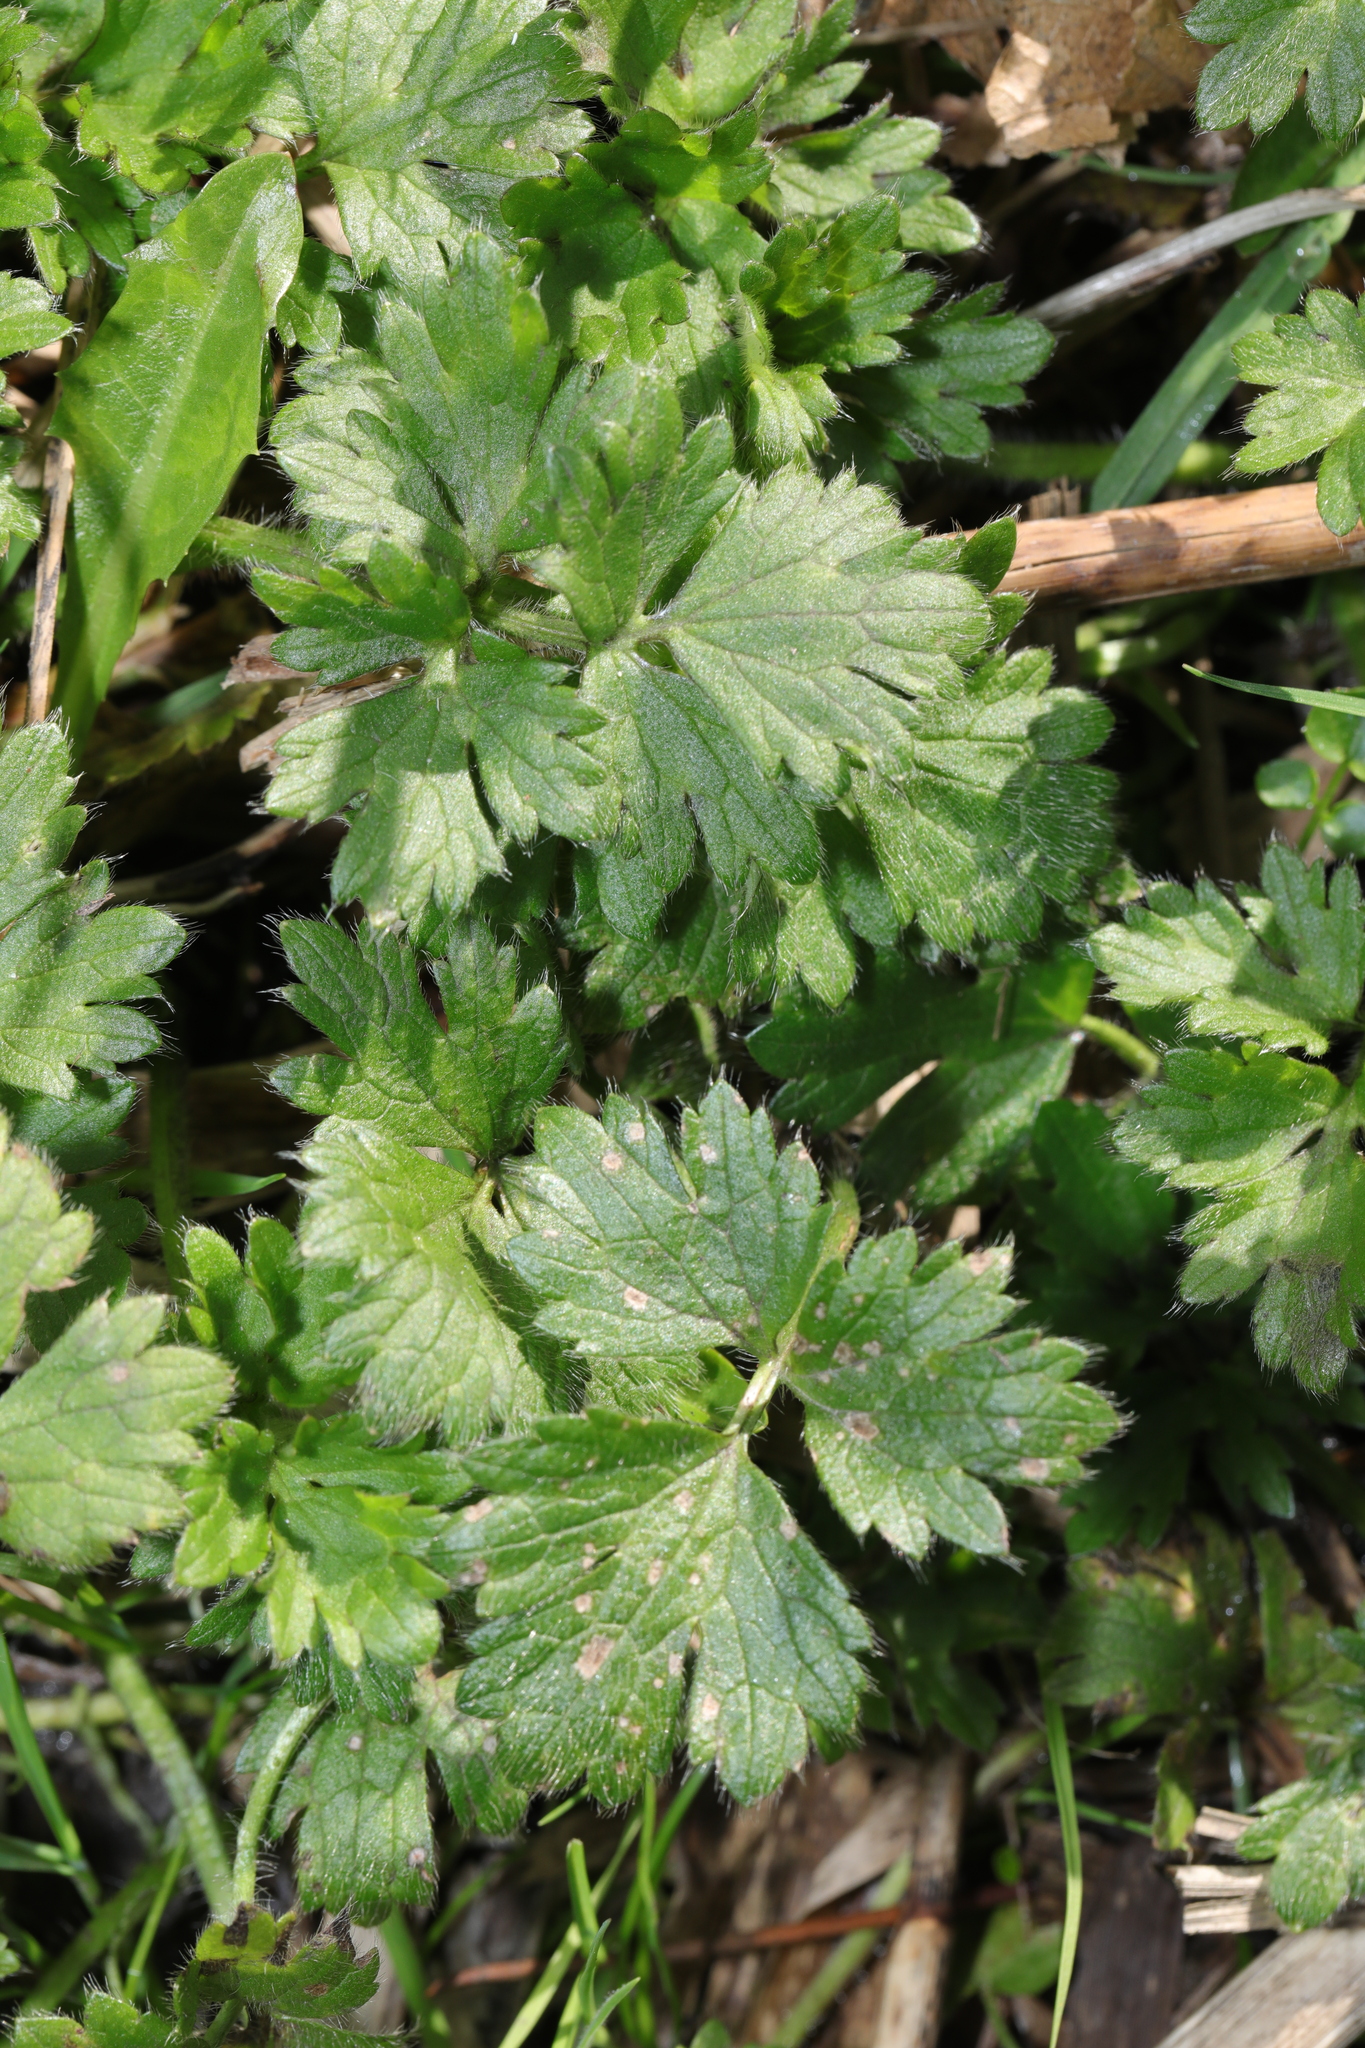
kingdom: Plantae
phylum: Tracheophyta
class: Magnoliopsida
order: Ranunculales
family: Ranunculaceae
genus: Ranunculus
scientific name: Ranunculus repens
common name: Creeping buttercup
